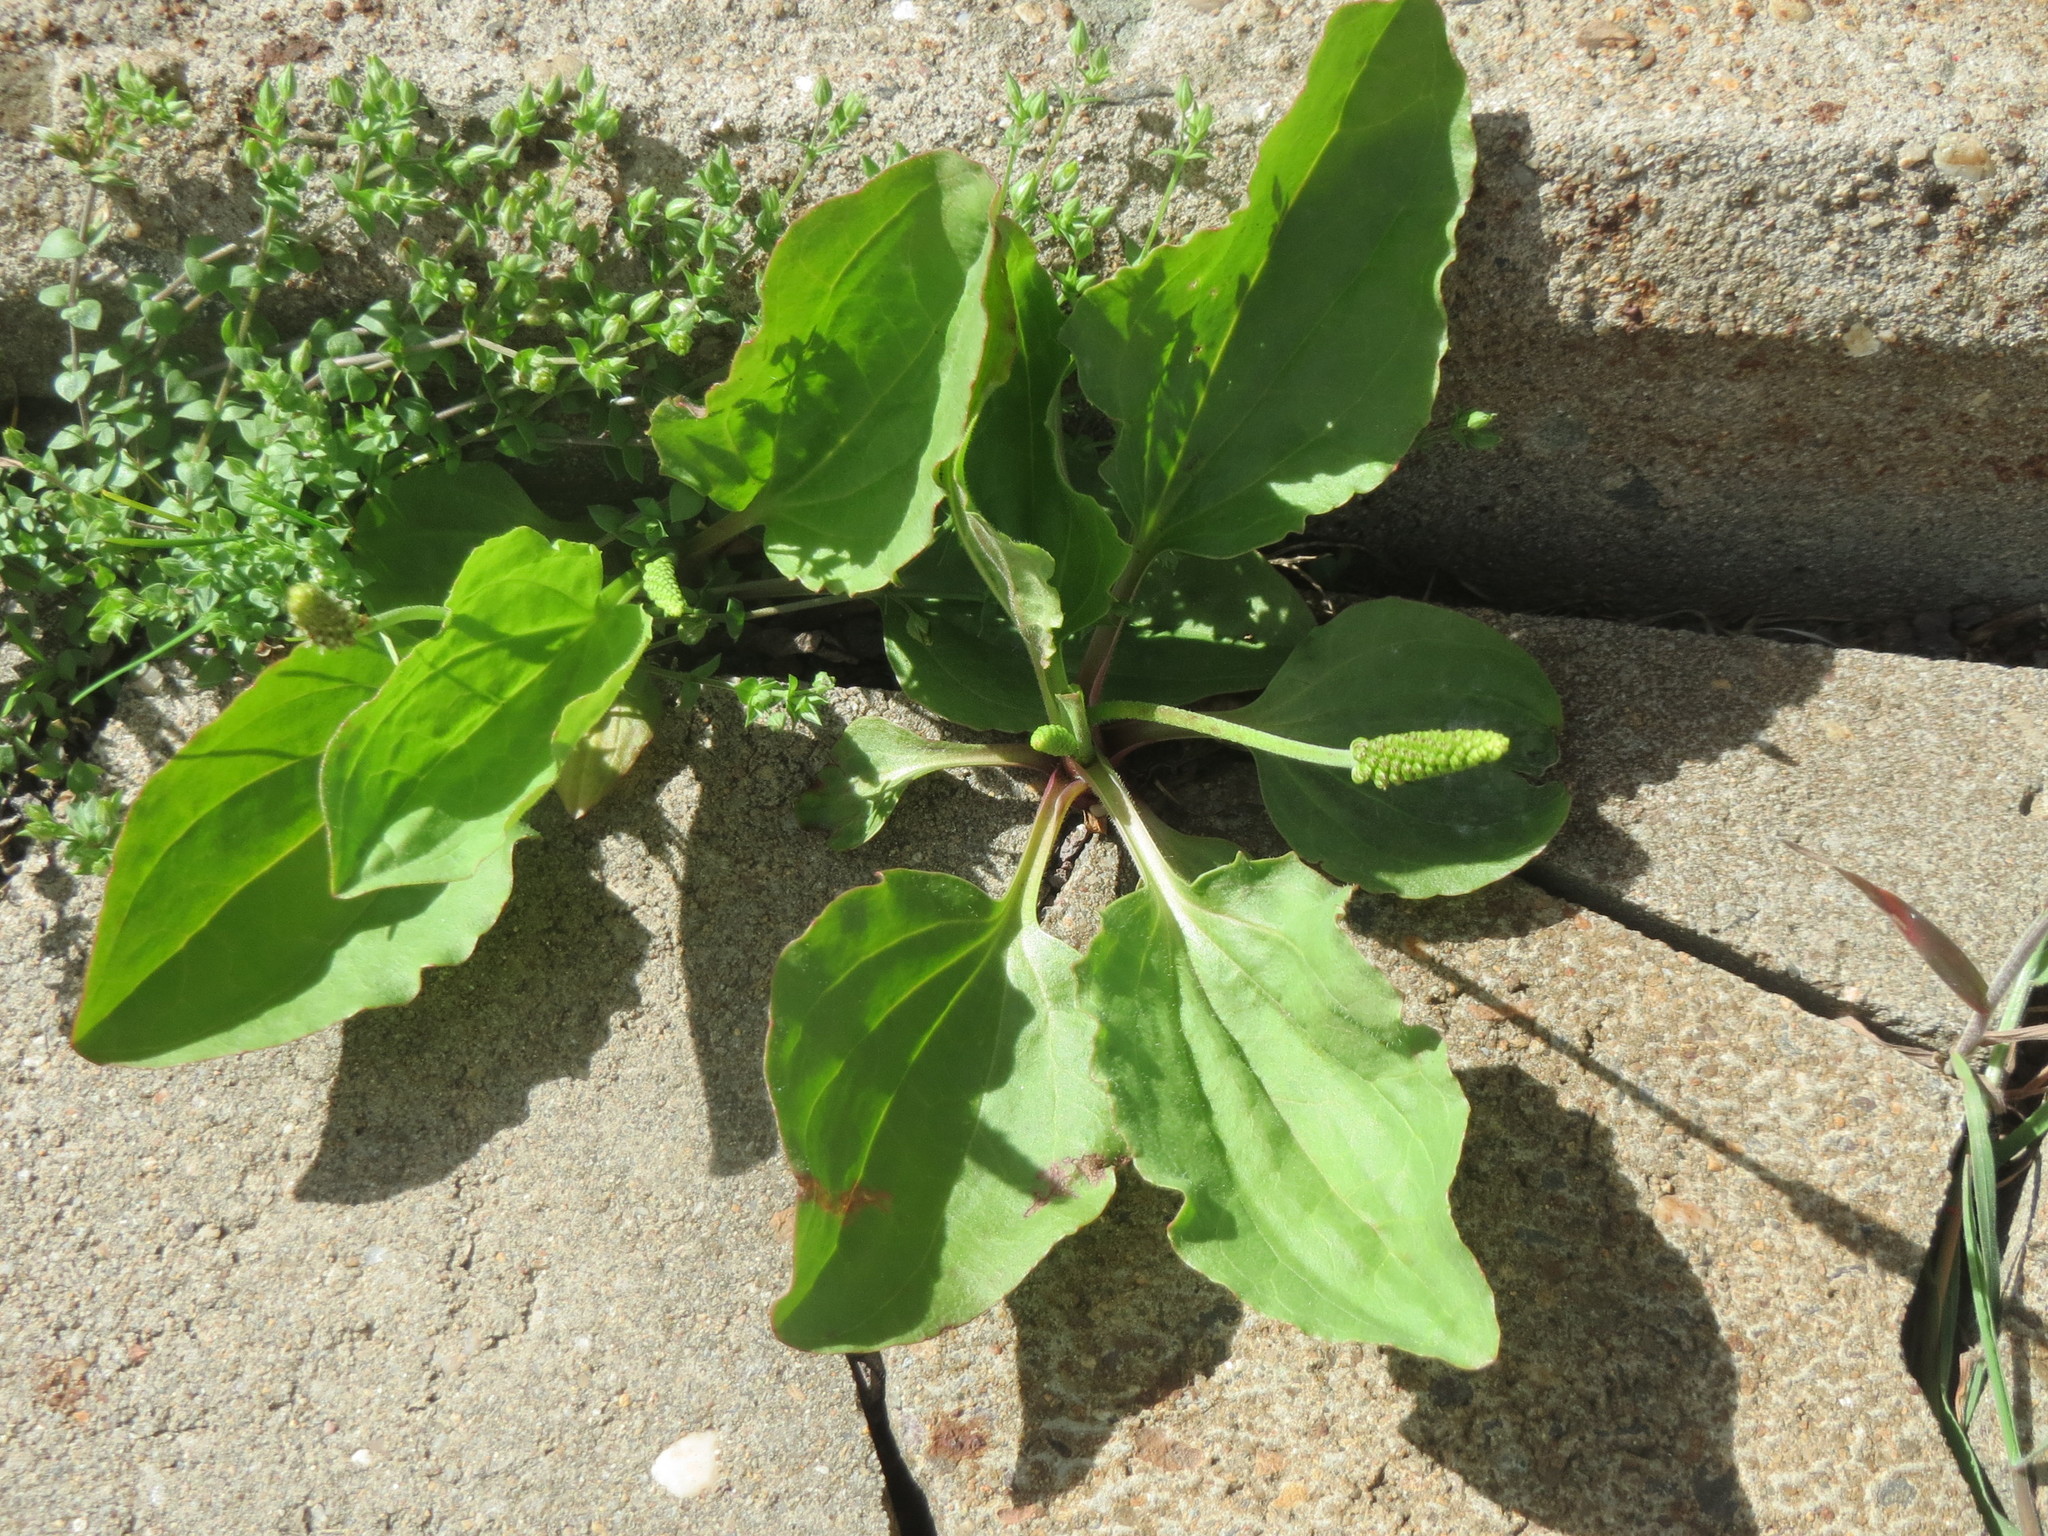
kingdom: Plantae
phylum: Tracheophyta
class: Magnoliopsida
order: Lamiales
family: Plantaginaceae
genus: Plantago
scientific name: Plantago major
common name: Common plantain
